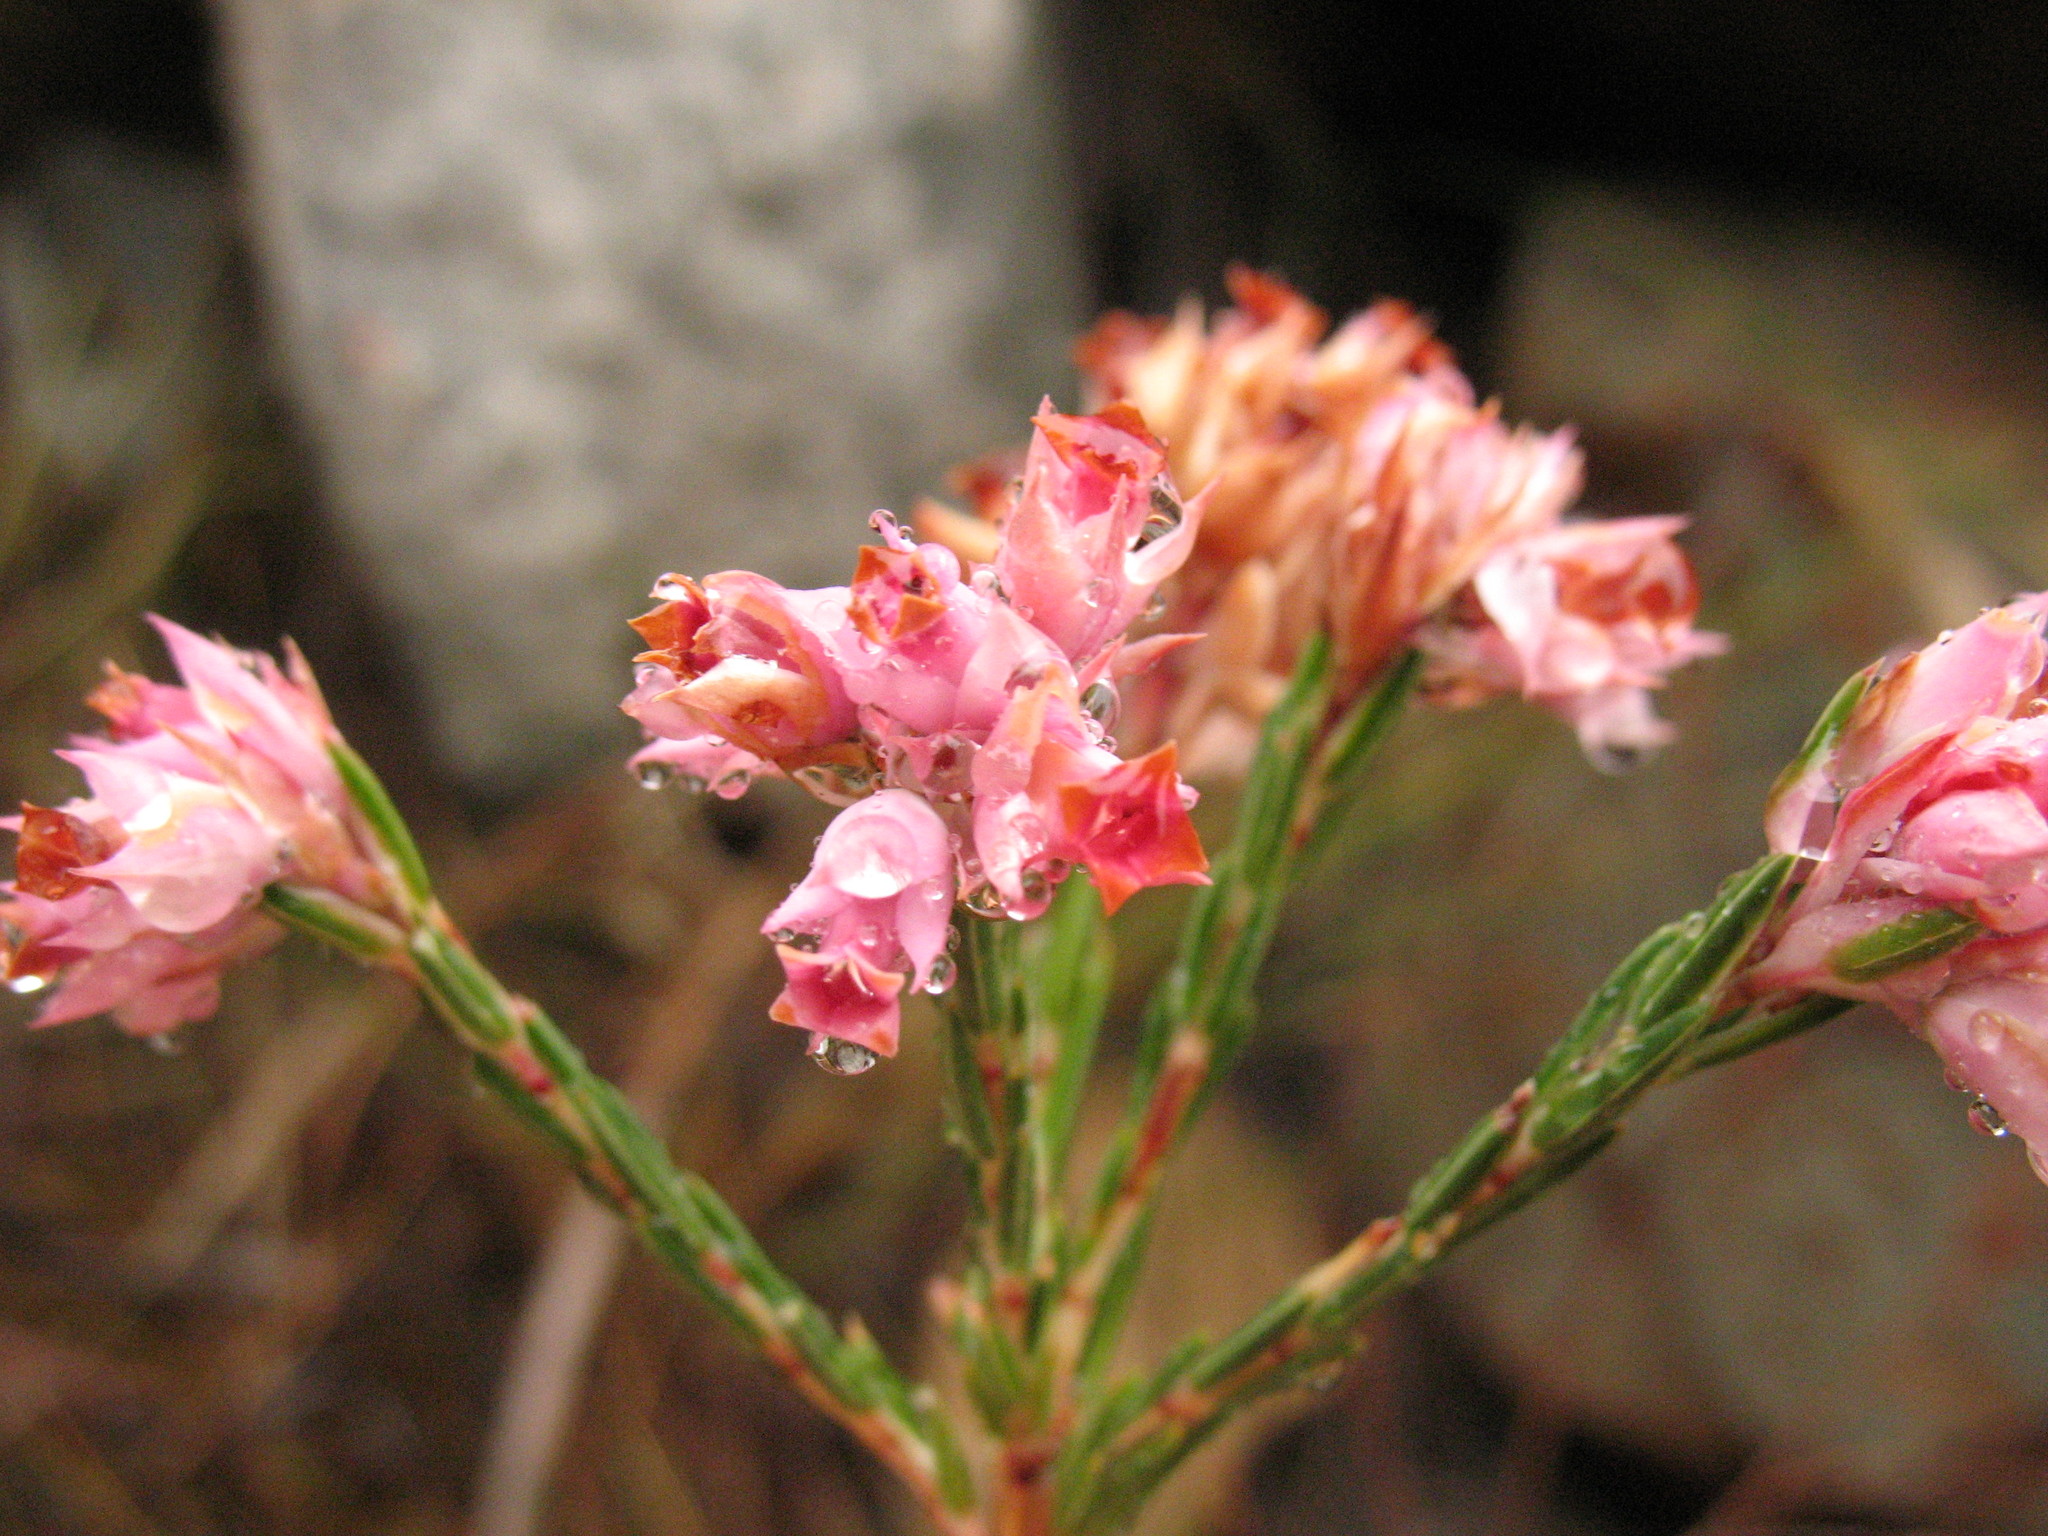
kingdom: Plantae
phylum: Tracheophyta
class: Magnoliopsida
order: Ericales
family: Ericaceae
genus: Erica
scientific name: Erica taxifolia
